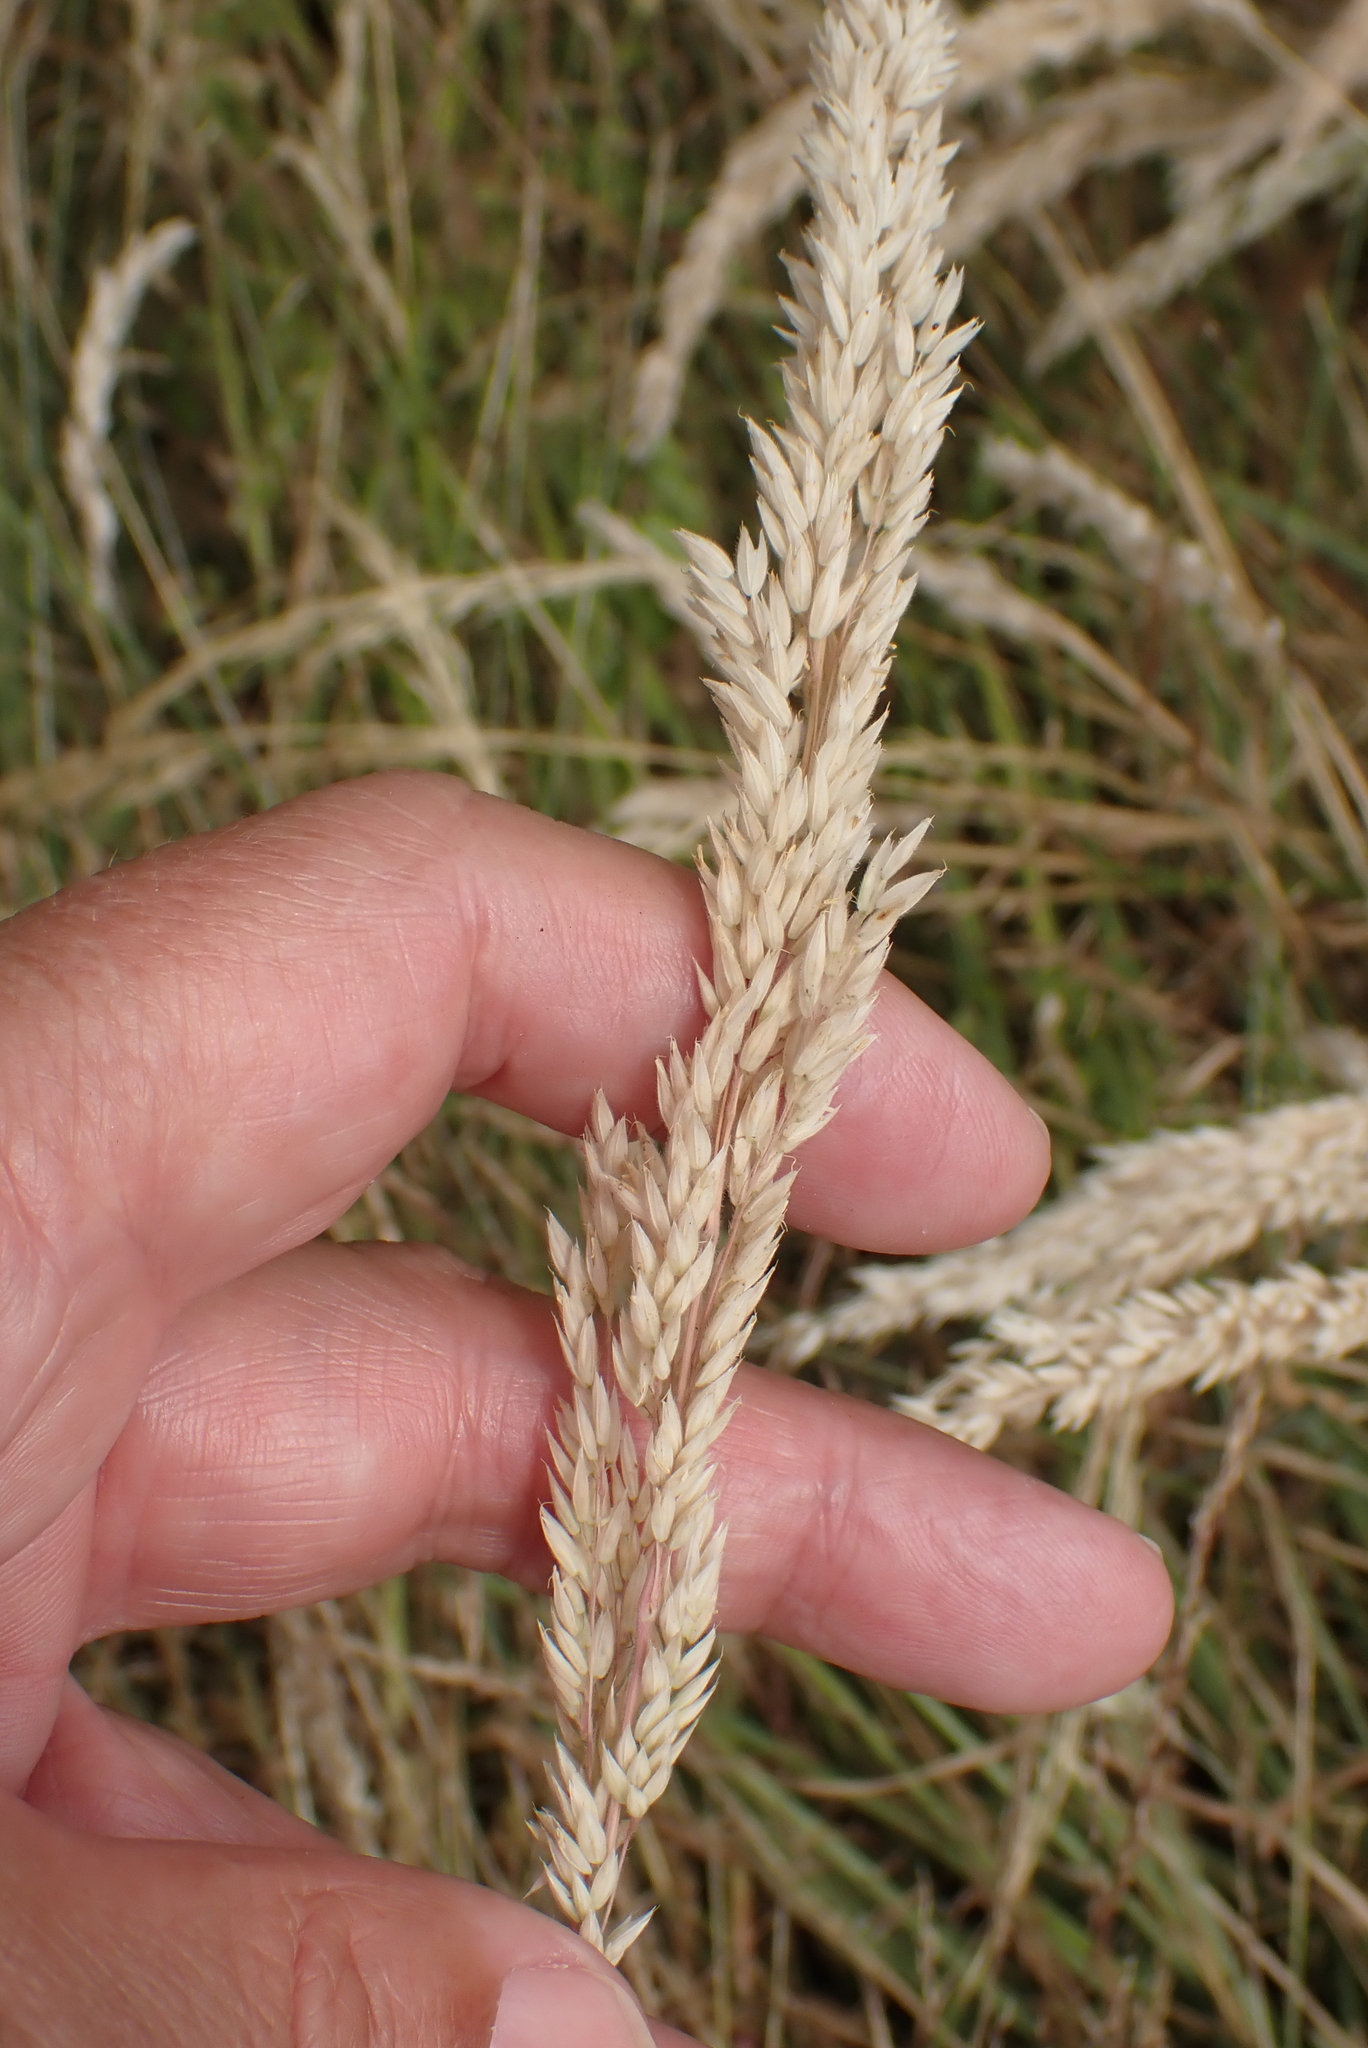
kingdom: Plantae
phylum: Tracheophyta
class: Liliopsida
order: Poales
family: Poaceae
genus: Holcus
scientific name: Holcus lanatus
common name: Yorkshire-fog
